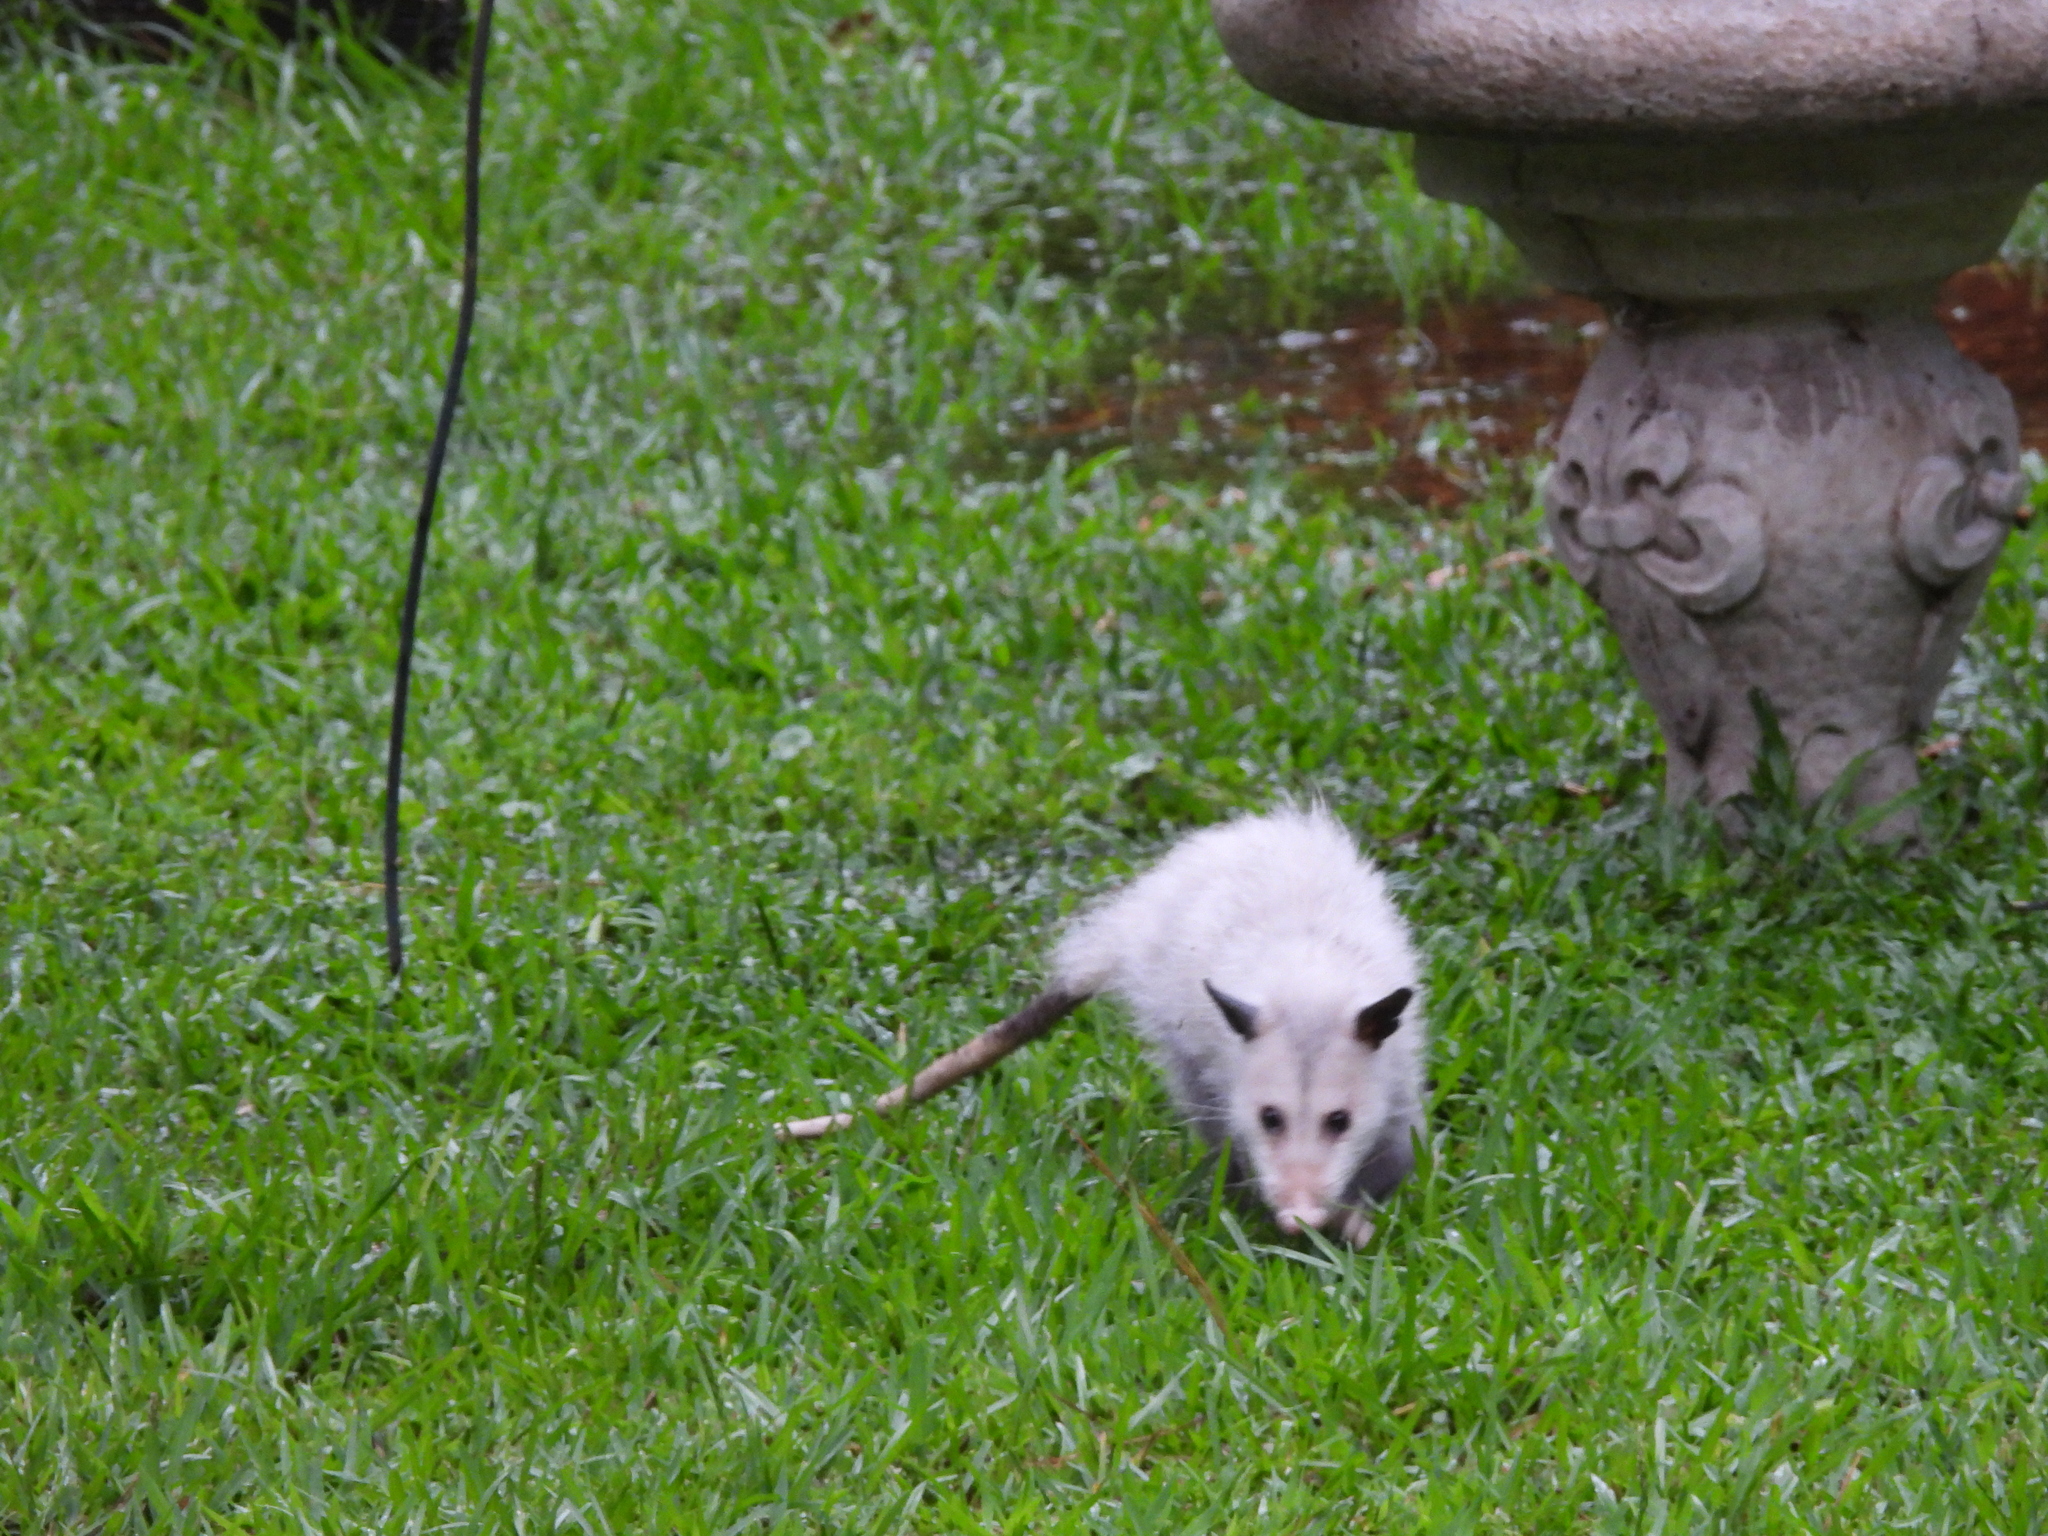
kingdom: Animalia
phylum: Chordata
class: Mammalia
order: Didelphimorphia
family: Didelphidae
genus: Didelphis
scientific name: Didelphis virginiana
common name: Virginia opossum
